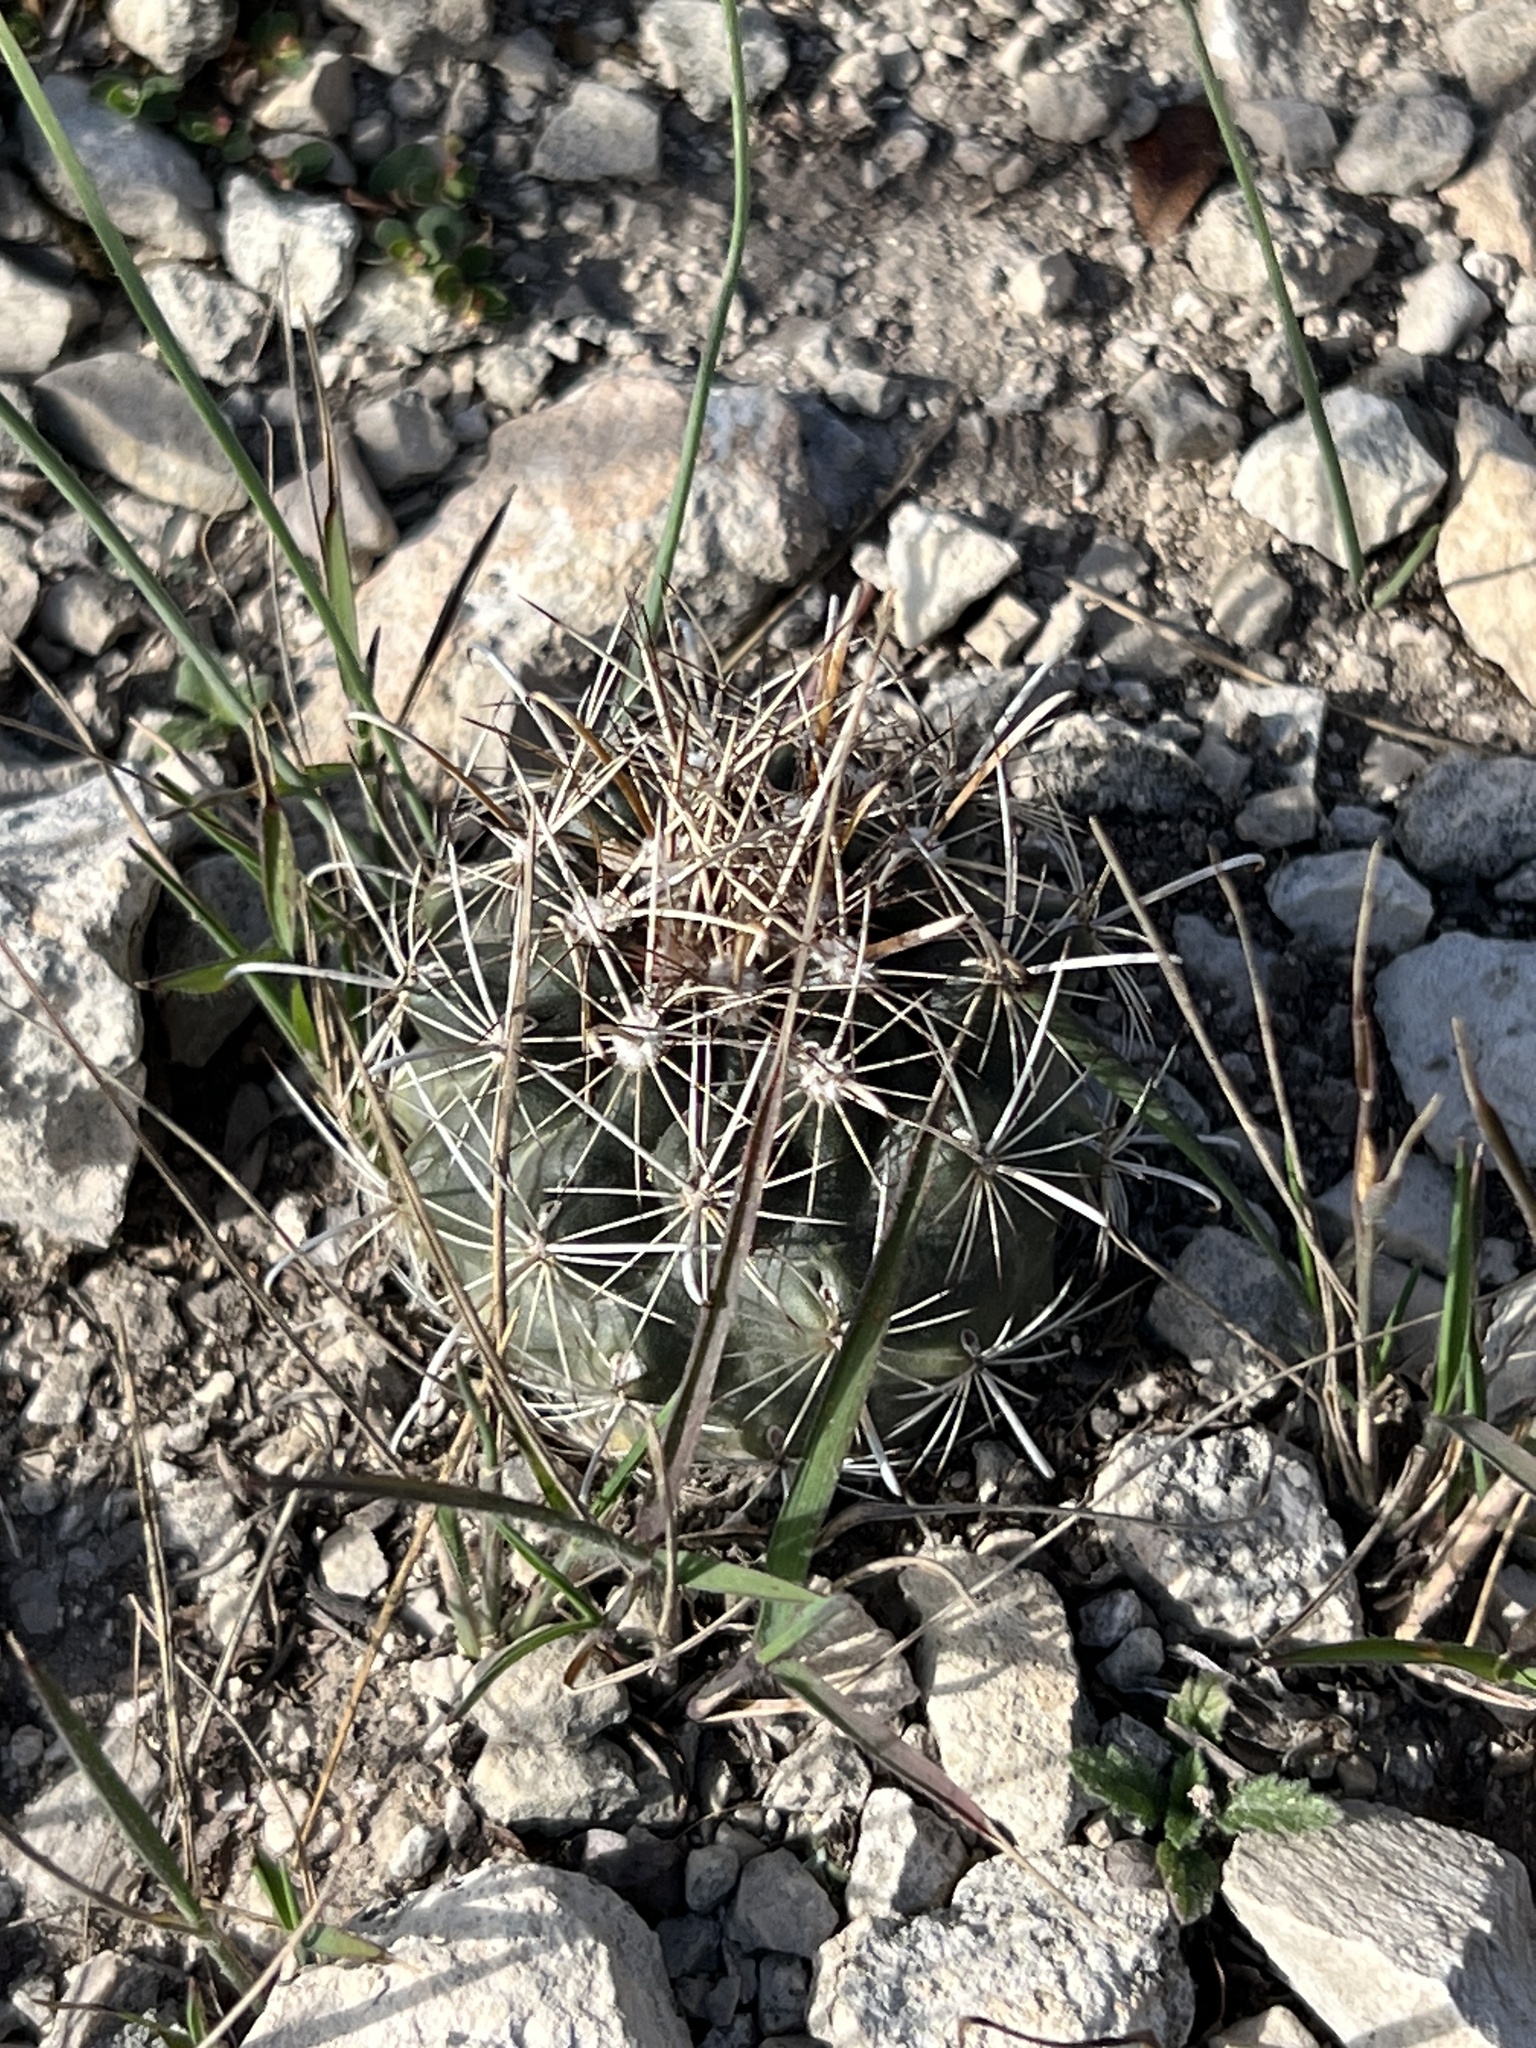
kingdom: Plantae
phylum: Tracheophyta
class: Magnoliopsida
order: Caryophyllales
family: Cactaceae
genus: Sclerocactus
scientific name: Sclerocactus brevihamatus
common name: Engelmann's fishhook cactus
